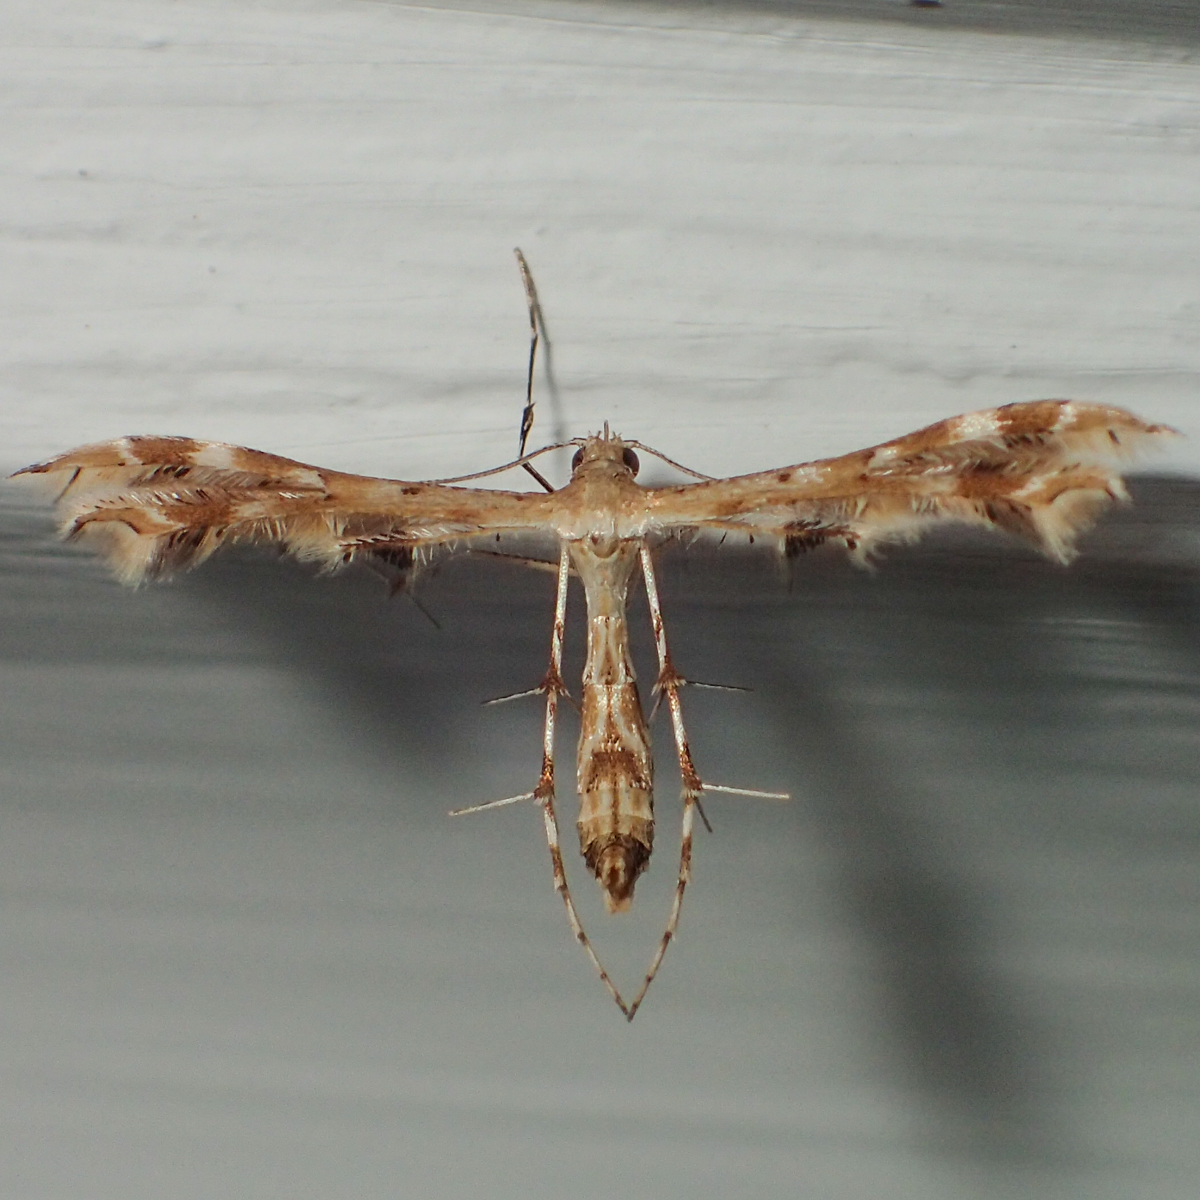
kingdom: Animalia
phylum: Arthropoda
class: Insecta
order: Lepidoptera
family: Pterophoridae
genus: Sphenarches
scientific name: Sphenarches anisodactylus
